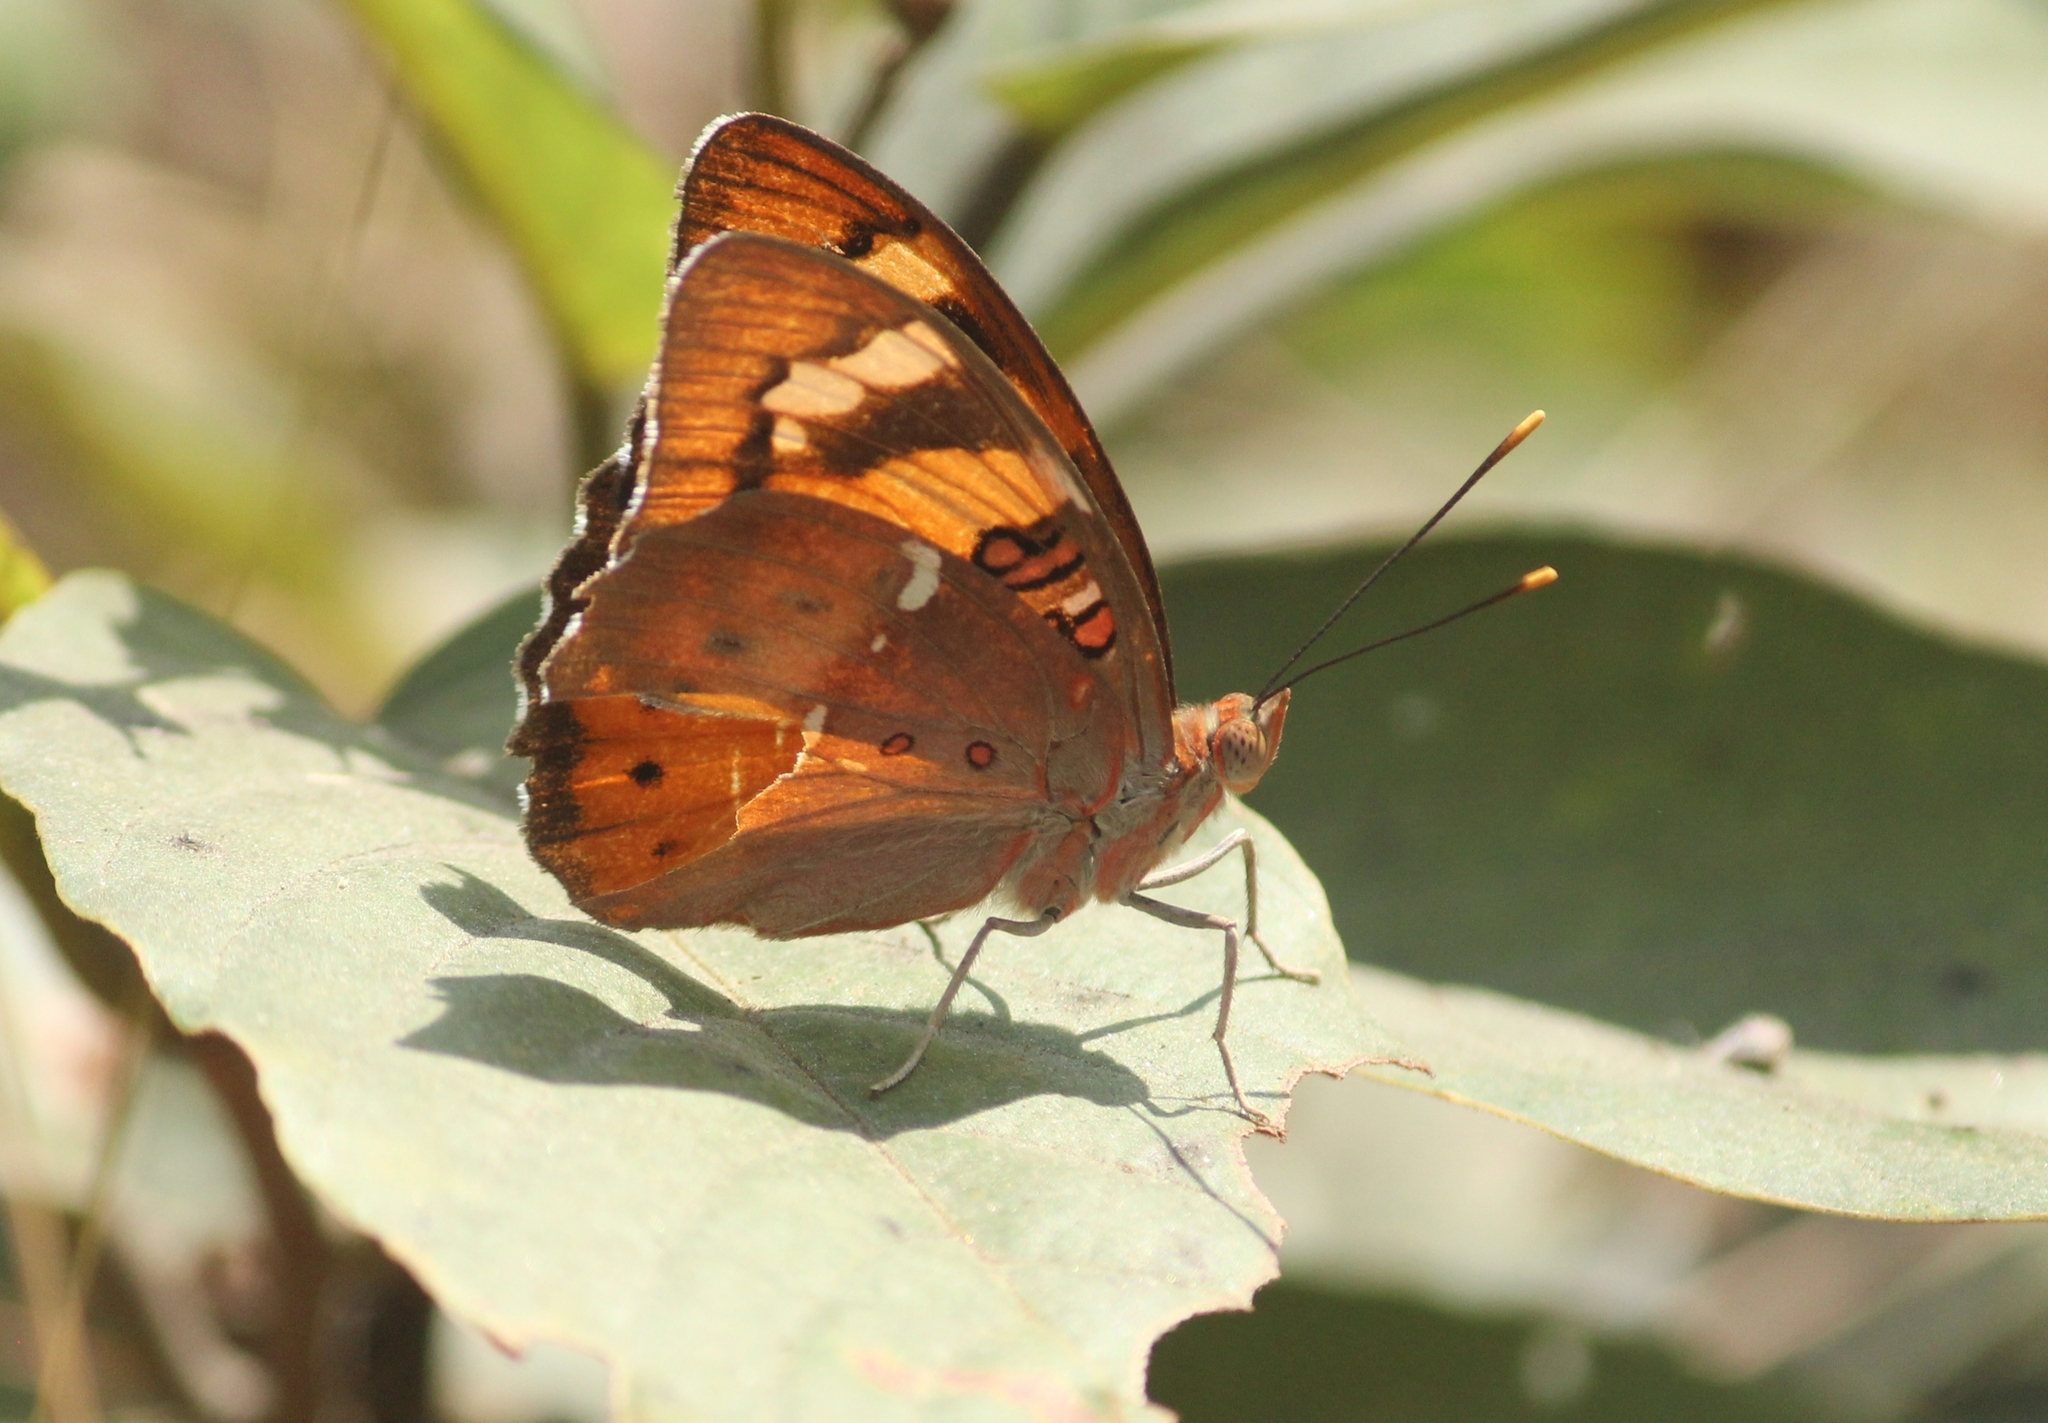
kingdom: Animalia
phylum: Arthropoda
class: Insecta
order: Lepidoptera
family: Nymphalidae
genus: Euthalia
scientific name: Euthalia nais
